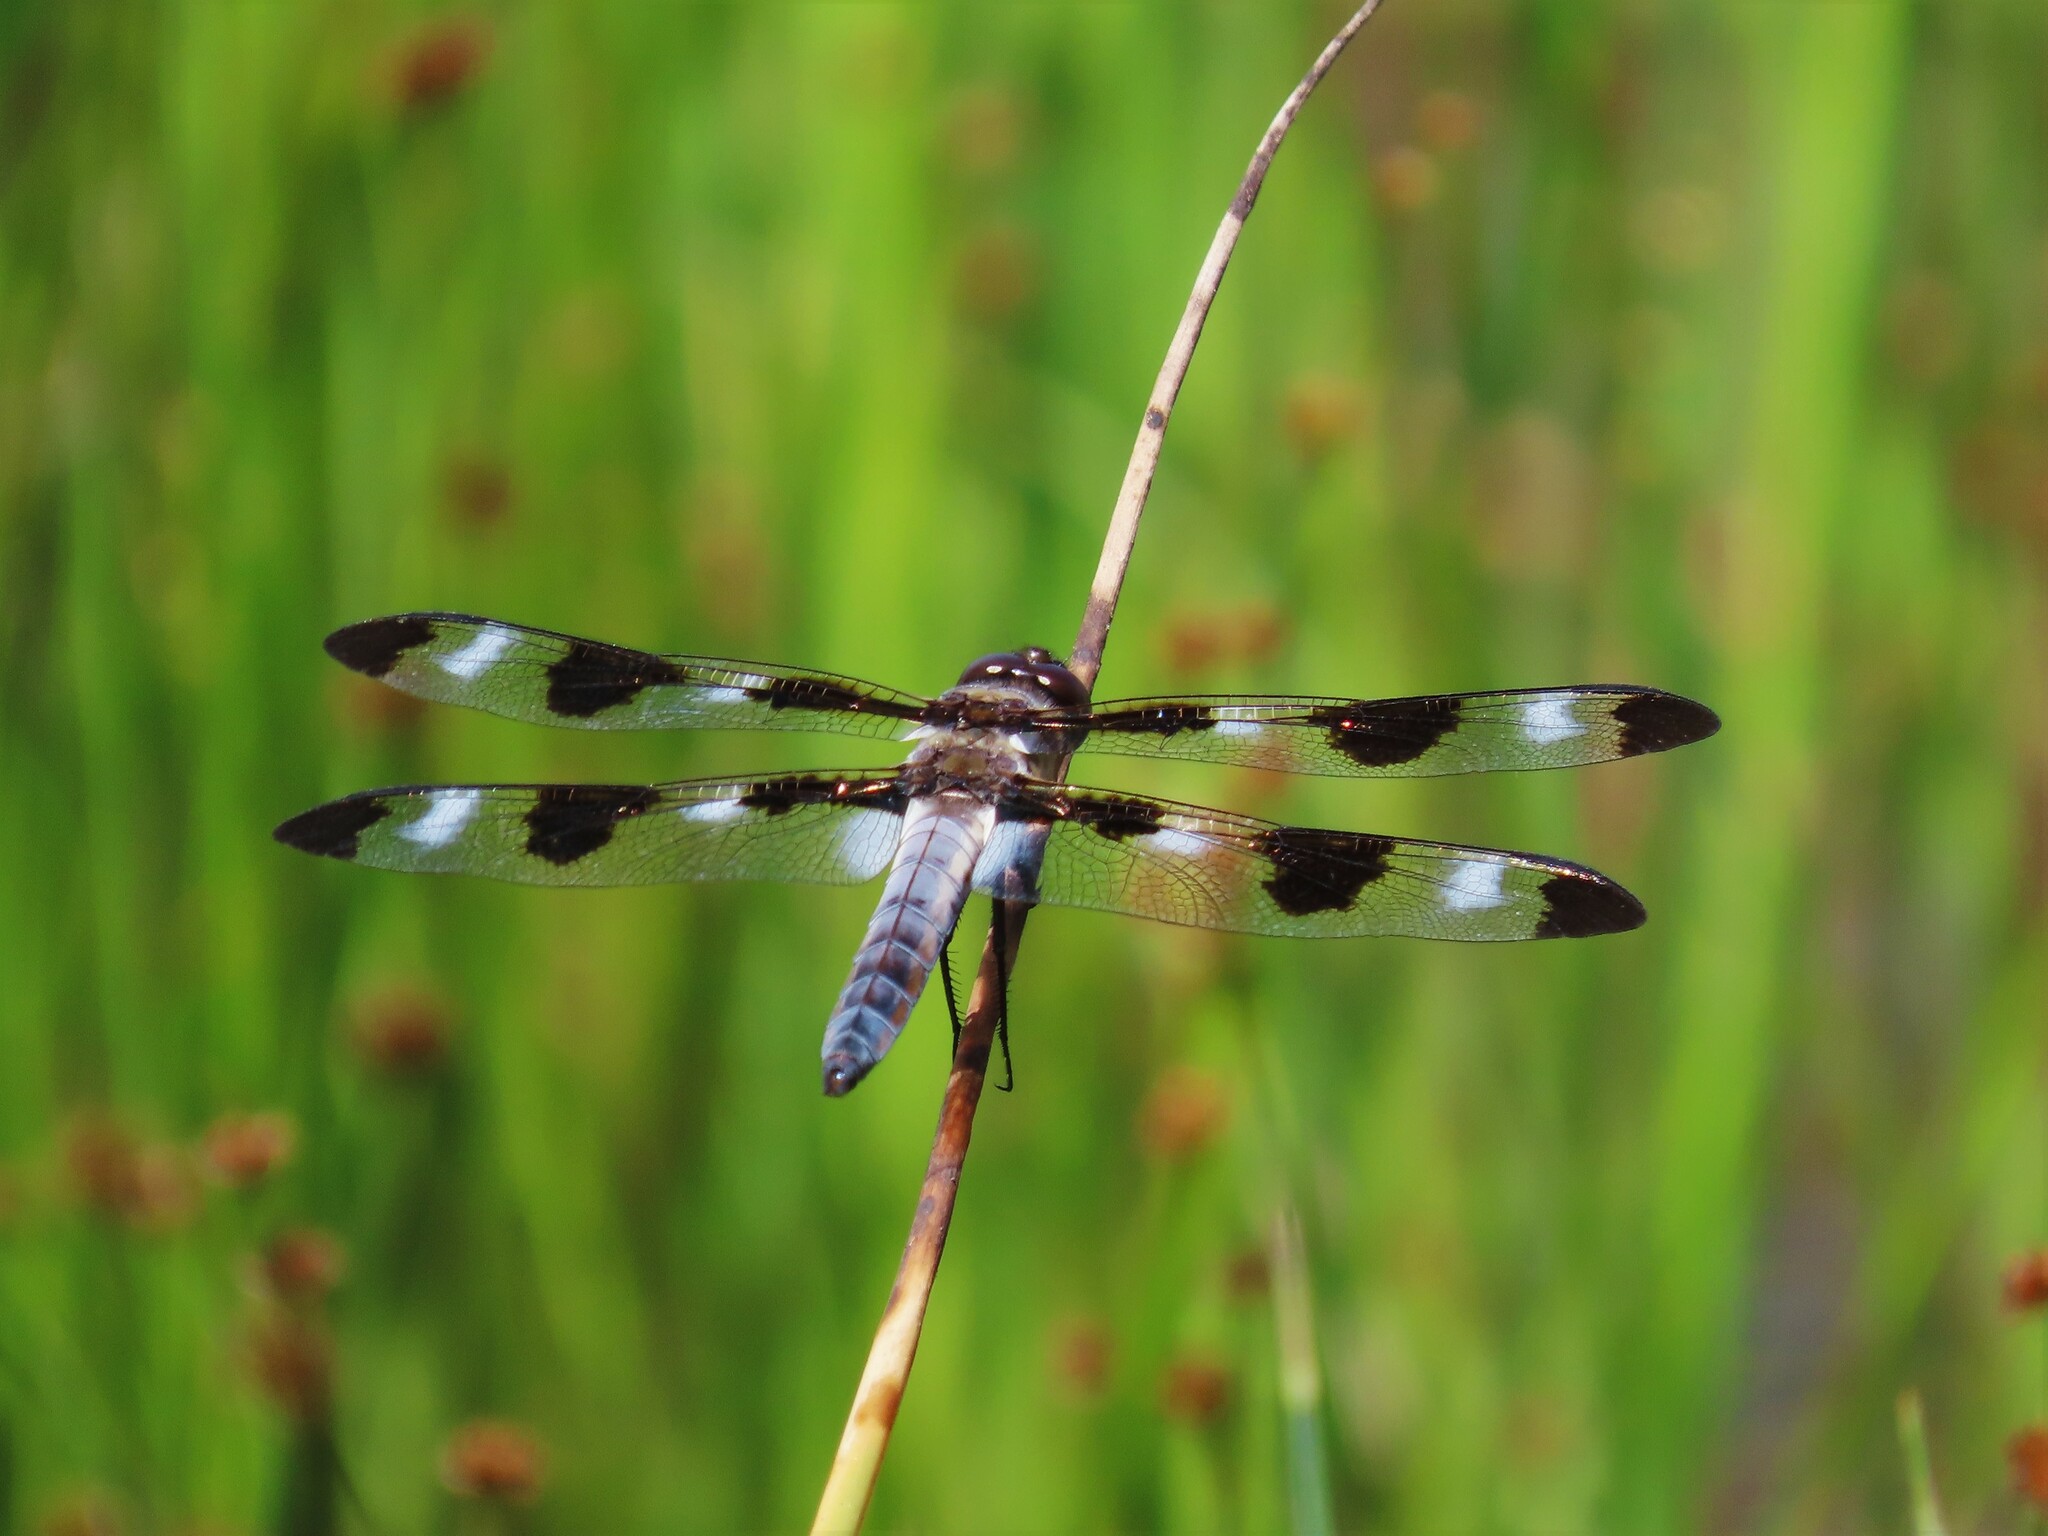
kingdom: Animalia
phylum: Arthropoda
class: Insecta
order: Odonata
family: Libellulidae
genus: Libellula
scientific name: Libellula pulchella
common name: Twelve-spotted skimmer
